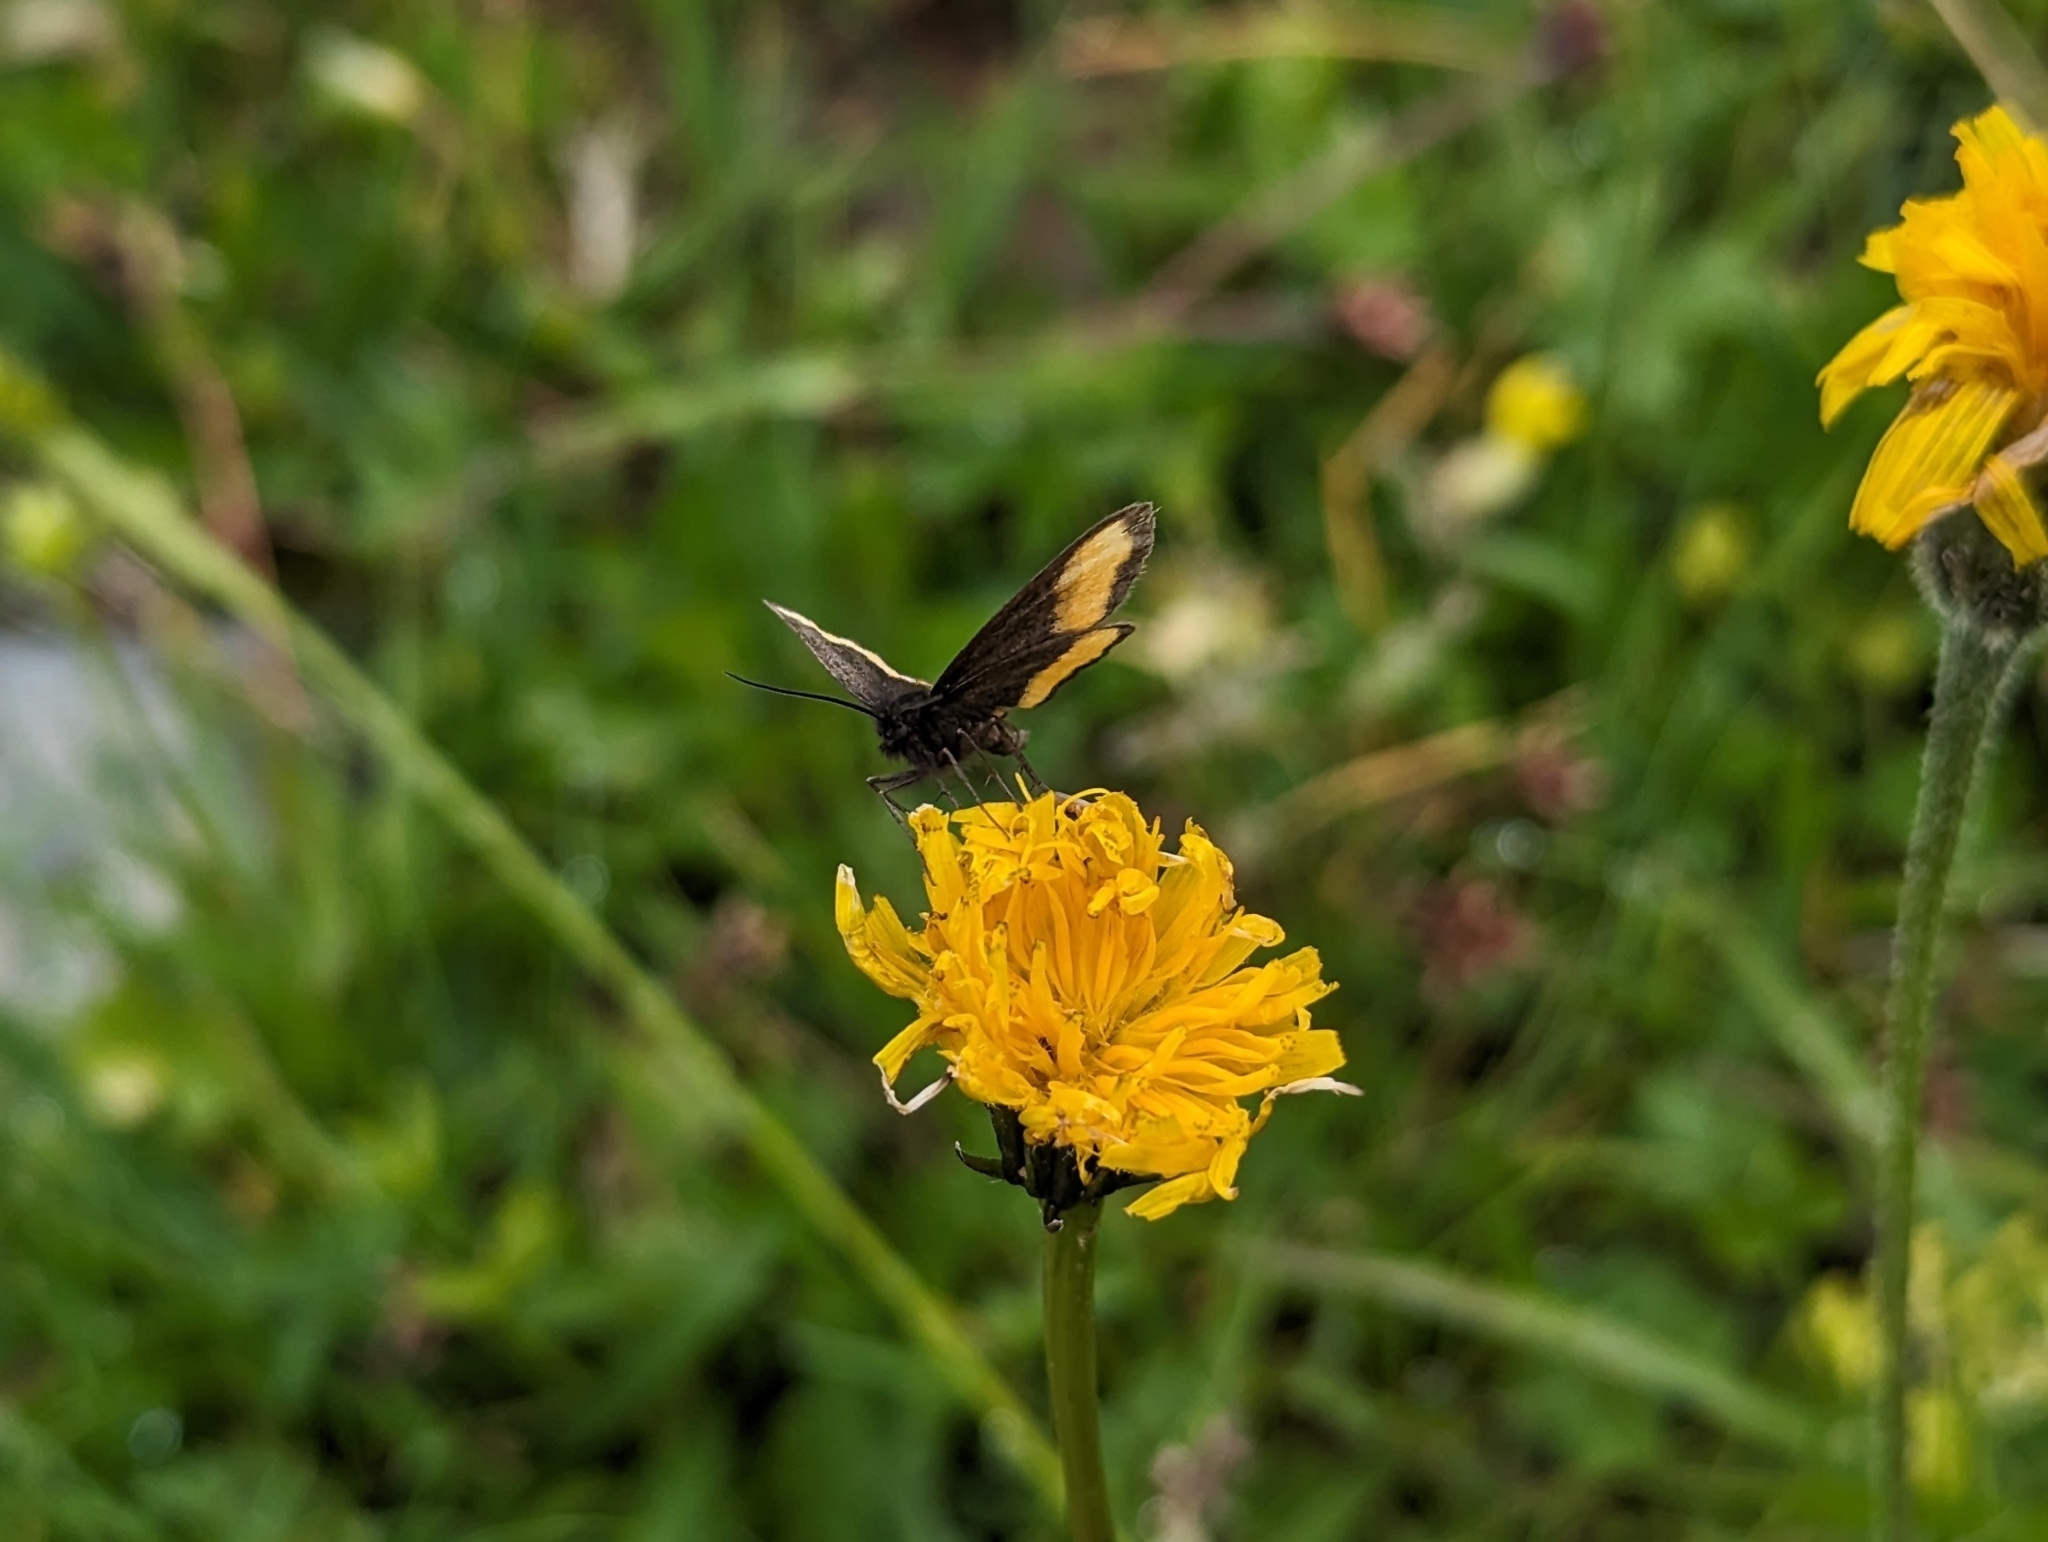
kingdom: Animalia
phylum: Arthropoda
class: Insecta
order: Lepidoptera
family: Geometridae
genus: Psodos
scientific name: Psodos quadrifaria
